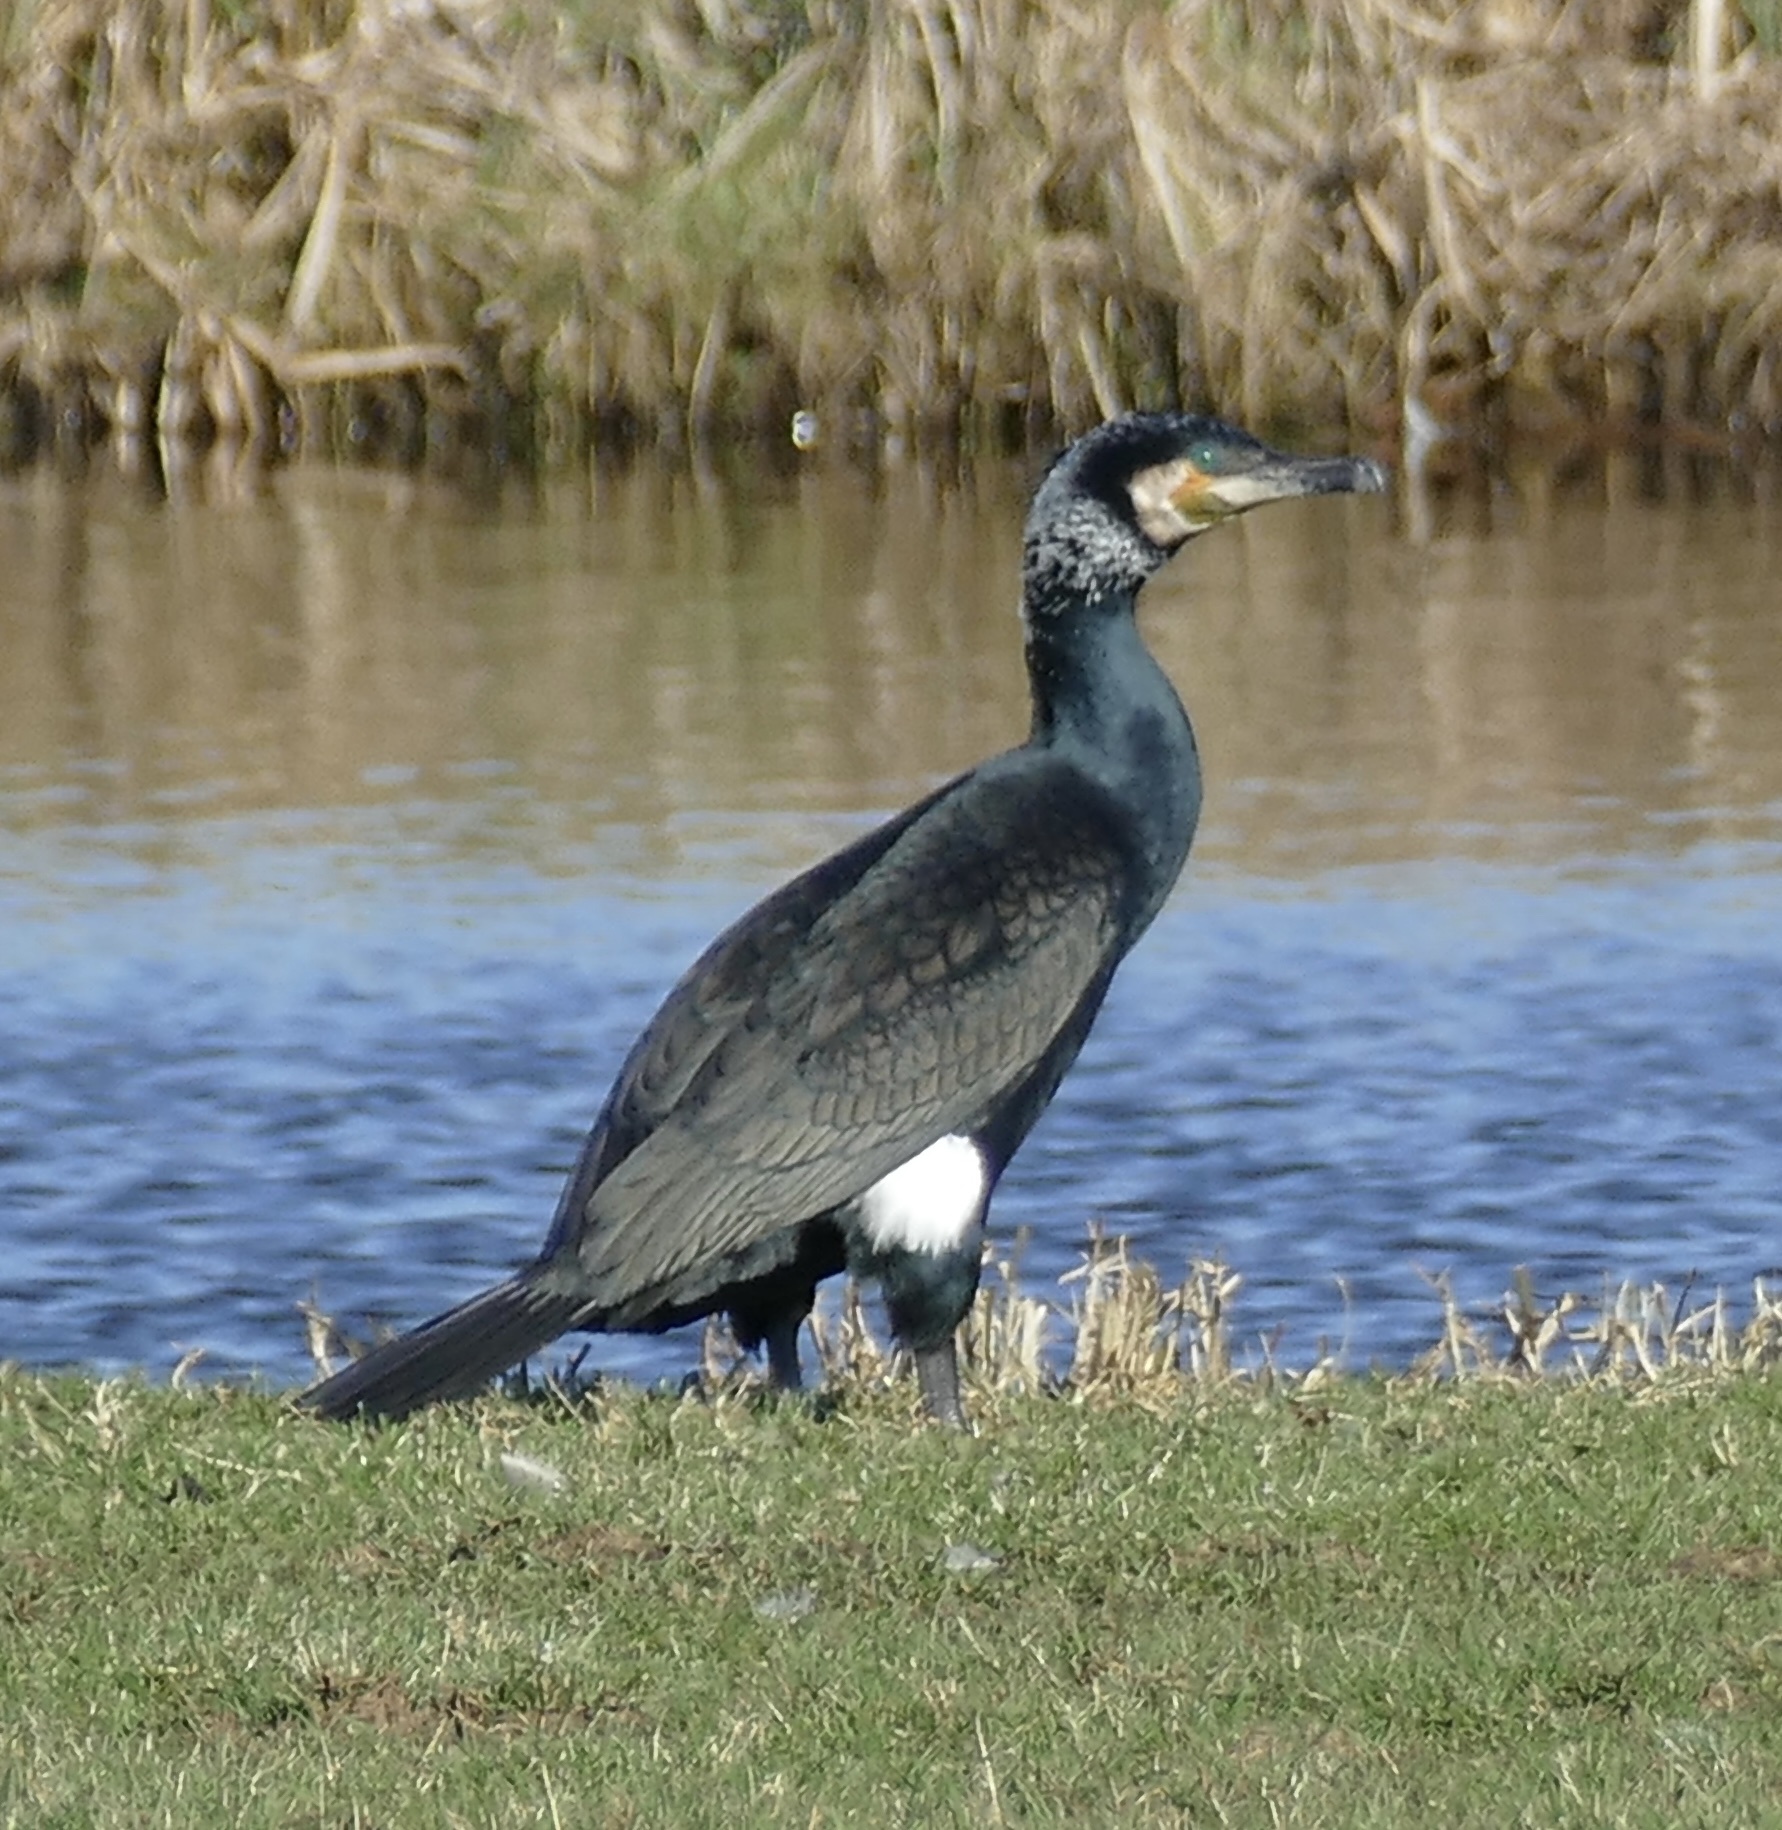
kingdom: Animalia
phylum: Chordata
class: Aves
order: Suliformes
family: Phalacrocoracidae
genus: Phalacrocorax
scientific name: Phalacrocorax carbo
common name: Great cormorant
